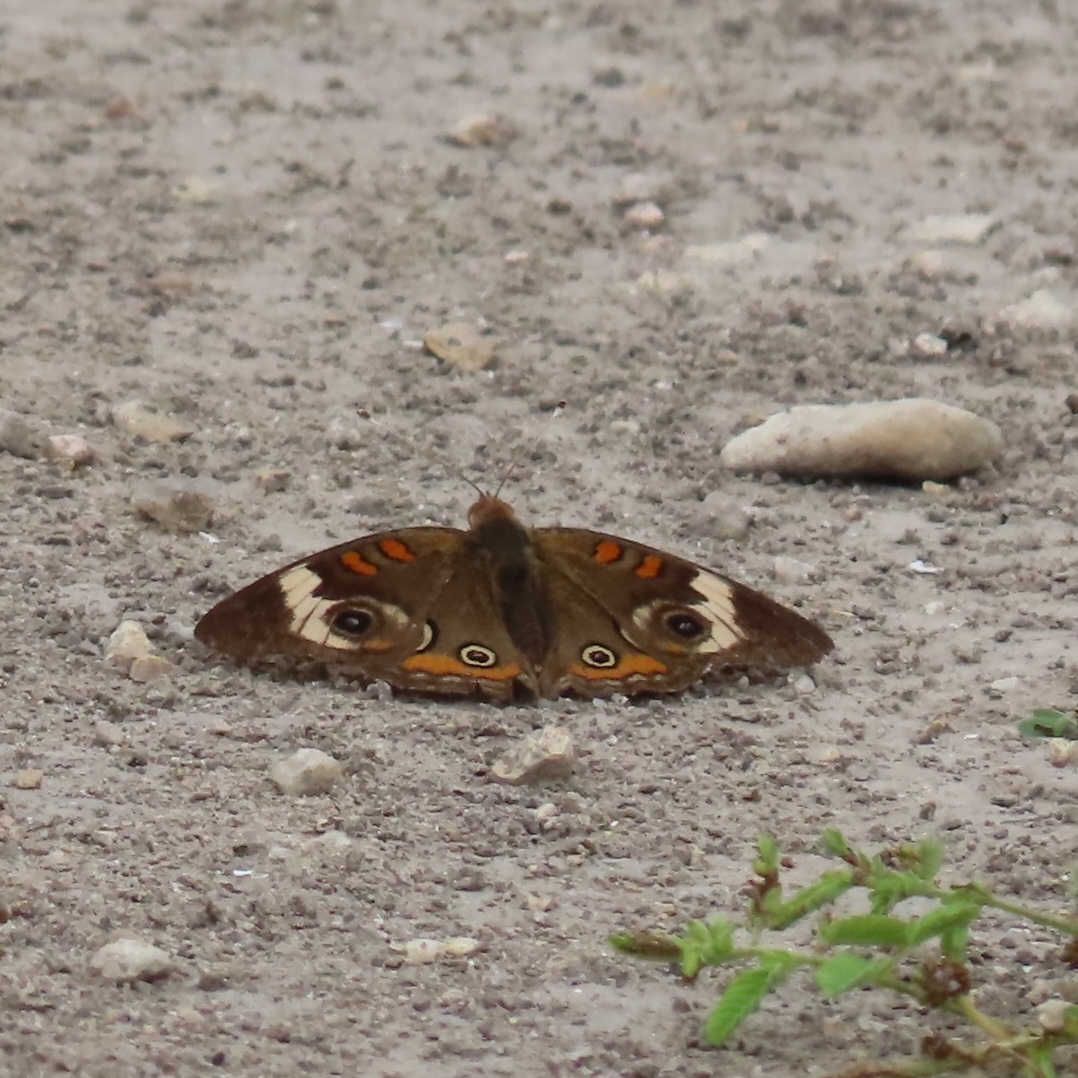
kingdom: Animalia
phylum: Arthropoda
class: Insecta
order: Lepidoptera
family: Nymphalidae
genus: Junonia
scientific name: Junonia coenia
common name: Common buckeye
